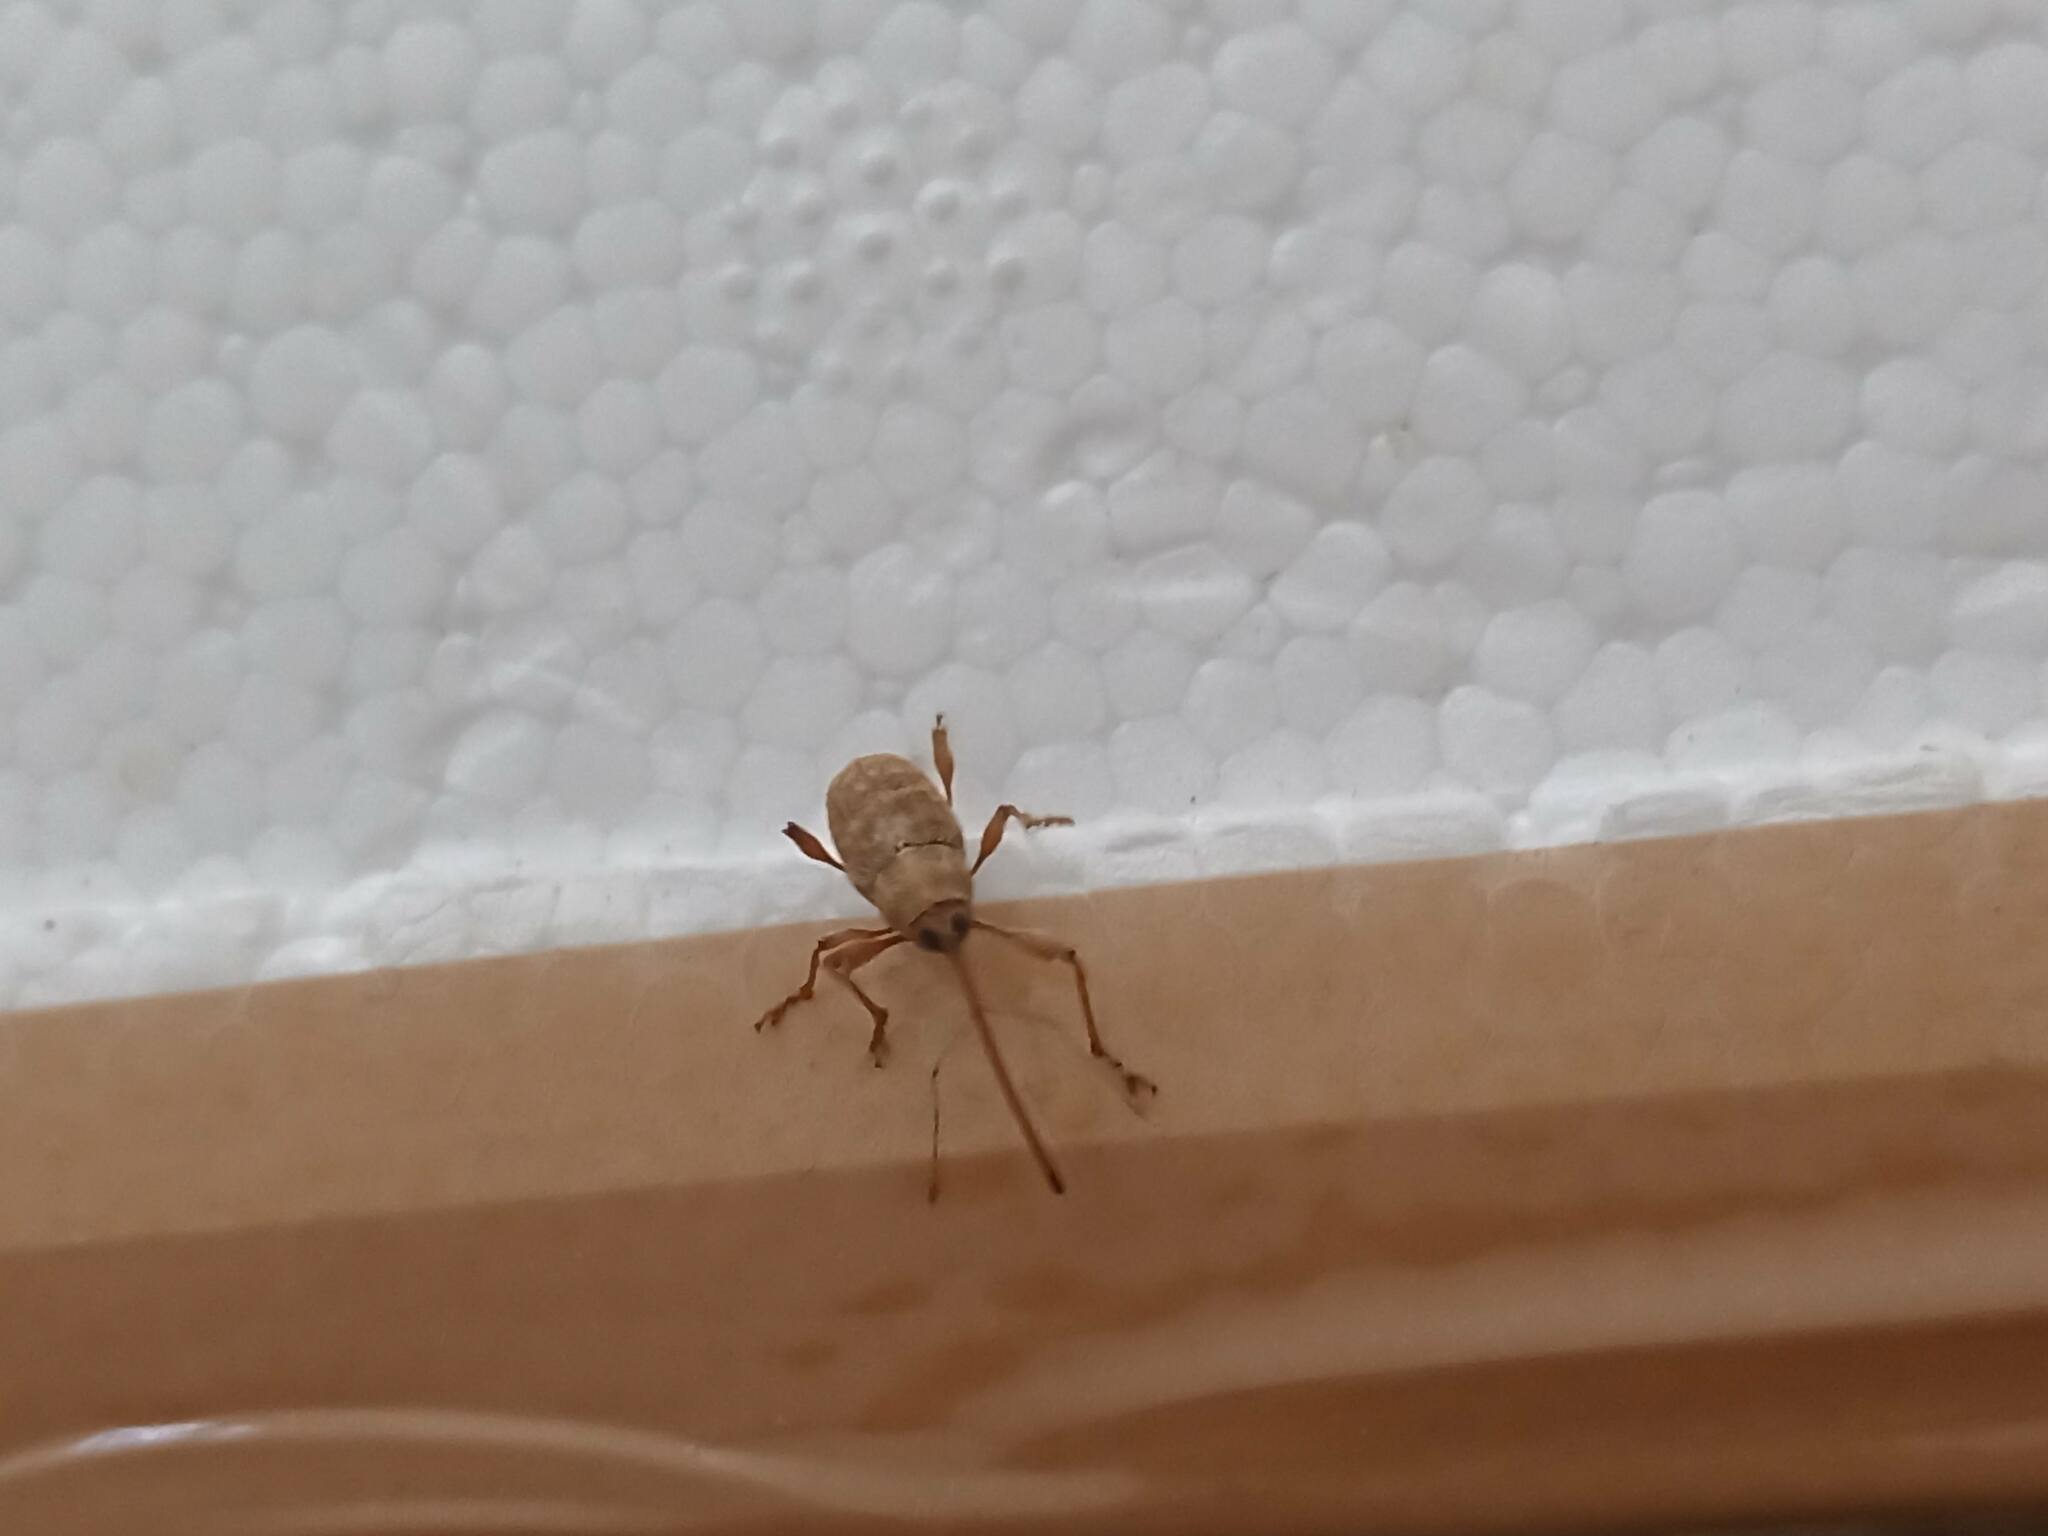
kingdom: Animalia
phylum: Arthropoda
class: Insecta
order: Coleoptera
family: Curculionidae
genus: Curculio
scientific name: Curculio elephas
